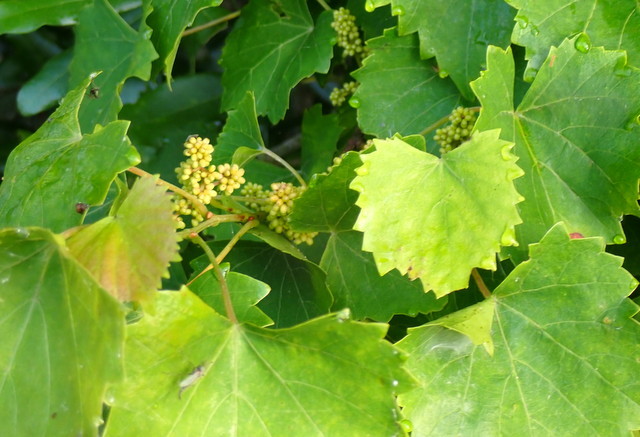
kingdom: Plantae
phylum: Tracheophyta
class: Magnoliopsida
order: Vitales
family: Vitaceae
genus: Vitis
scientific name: Vitis rotundifolia
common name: Muscadine grape
